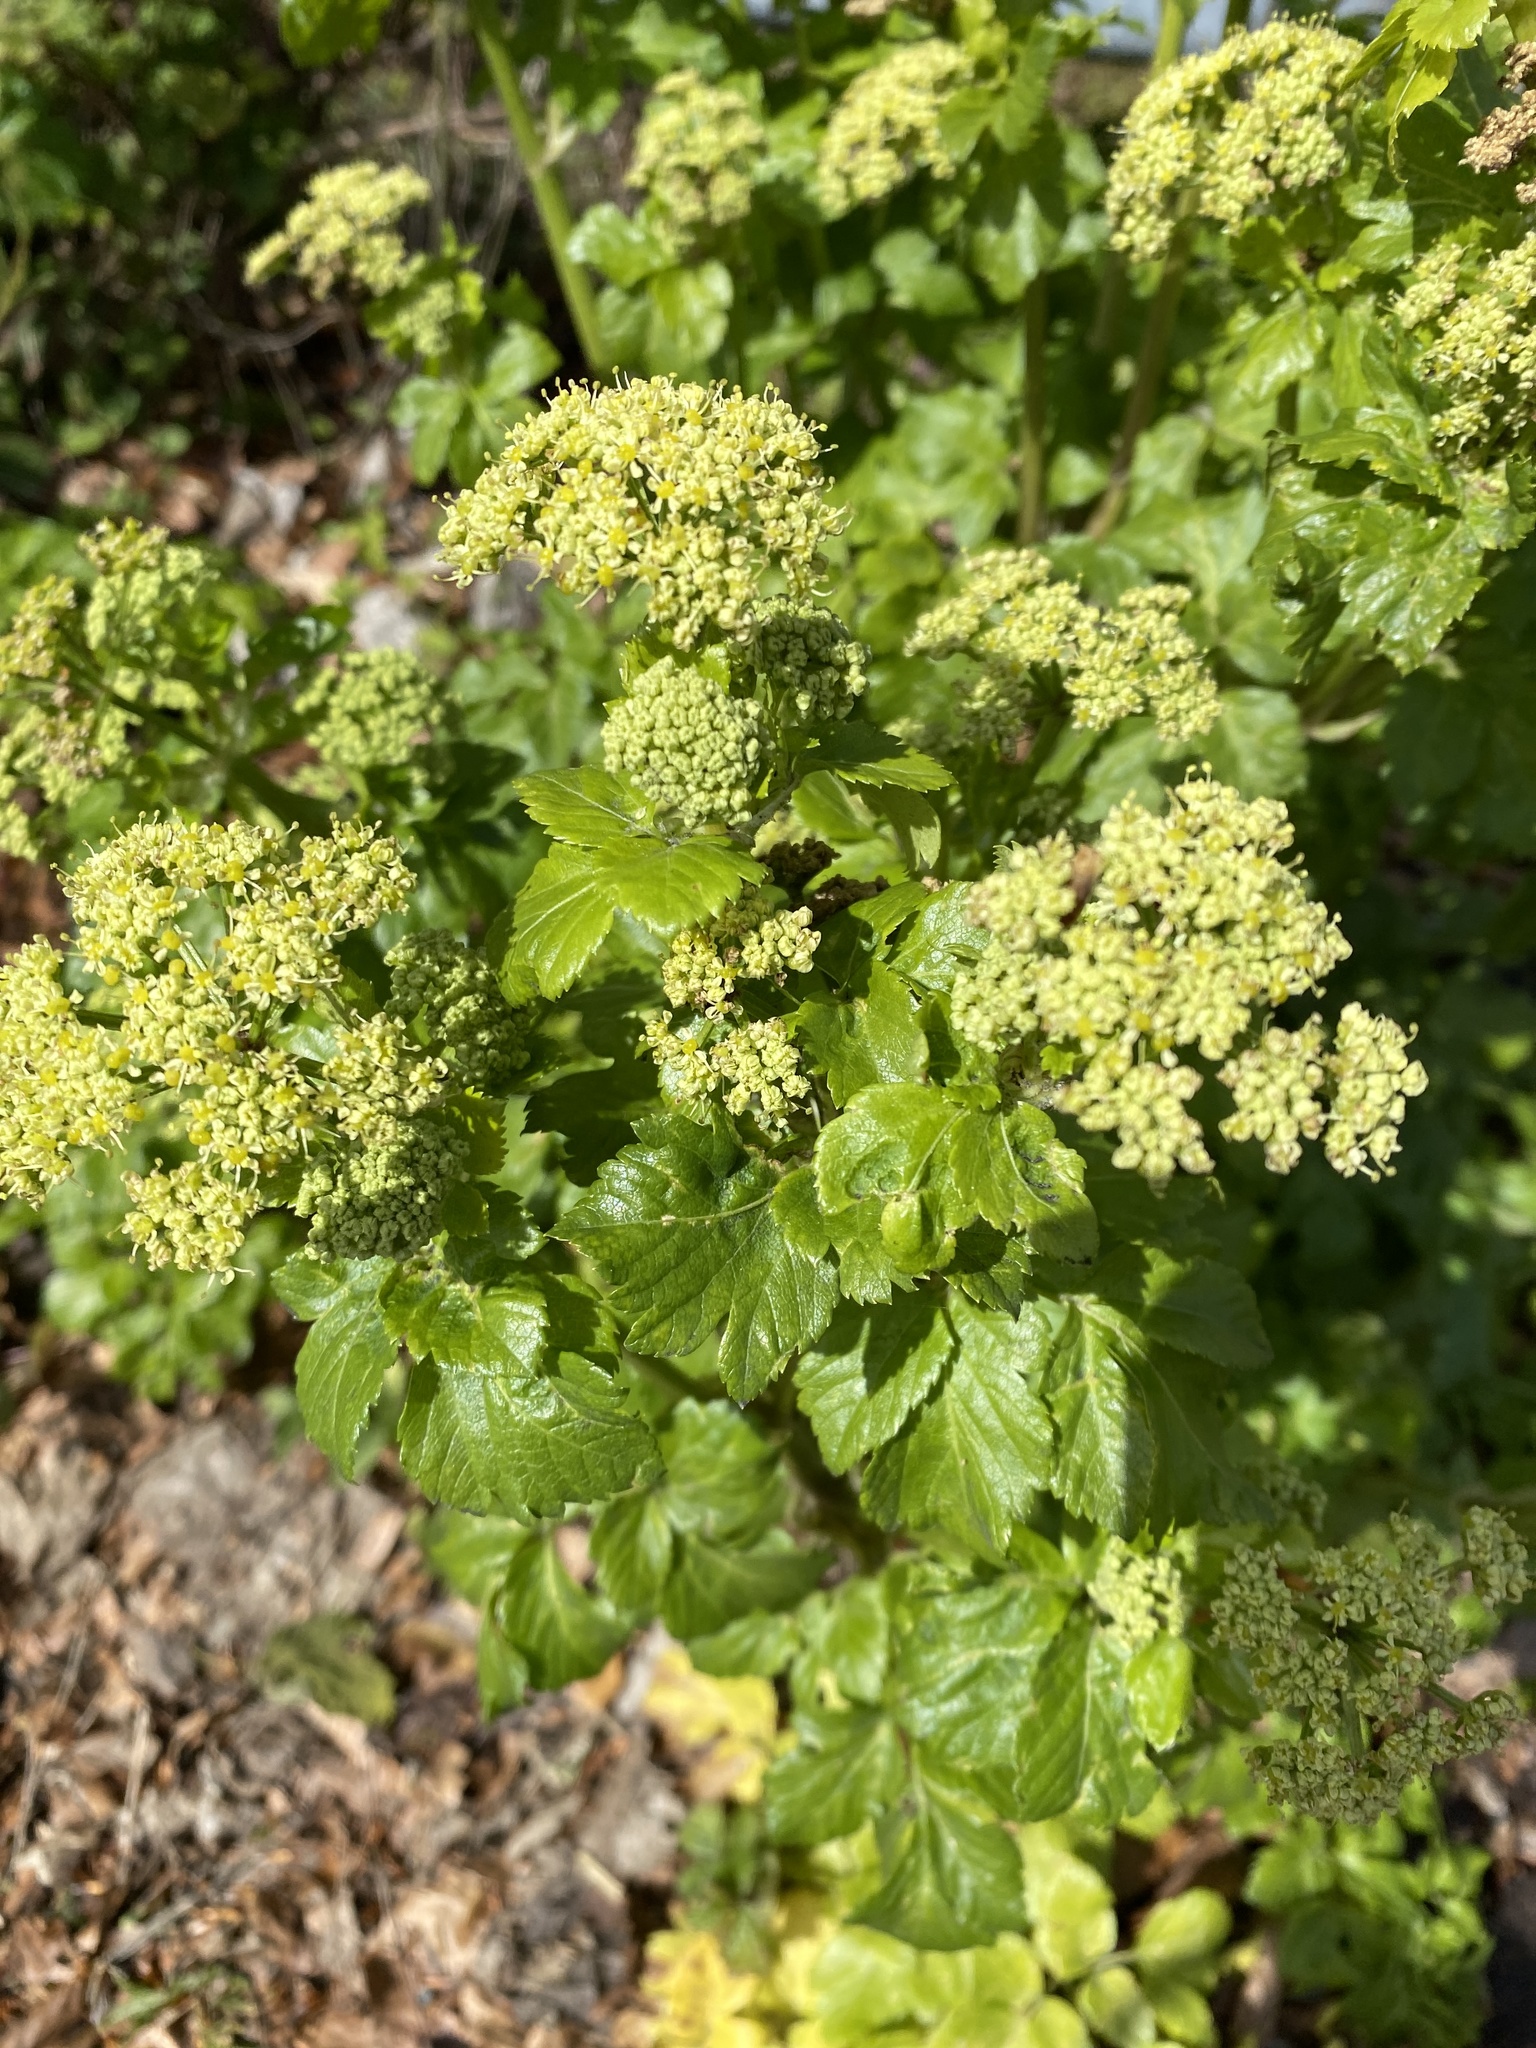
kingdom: Plantae
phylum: Tracheophyta
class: Magnoliopsida
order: Apiales
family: Apiaceae
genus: Smyrnium
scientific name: Smyrnium olusatrum
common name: Alexanders
